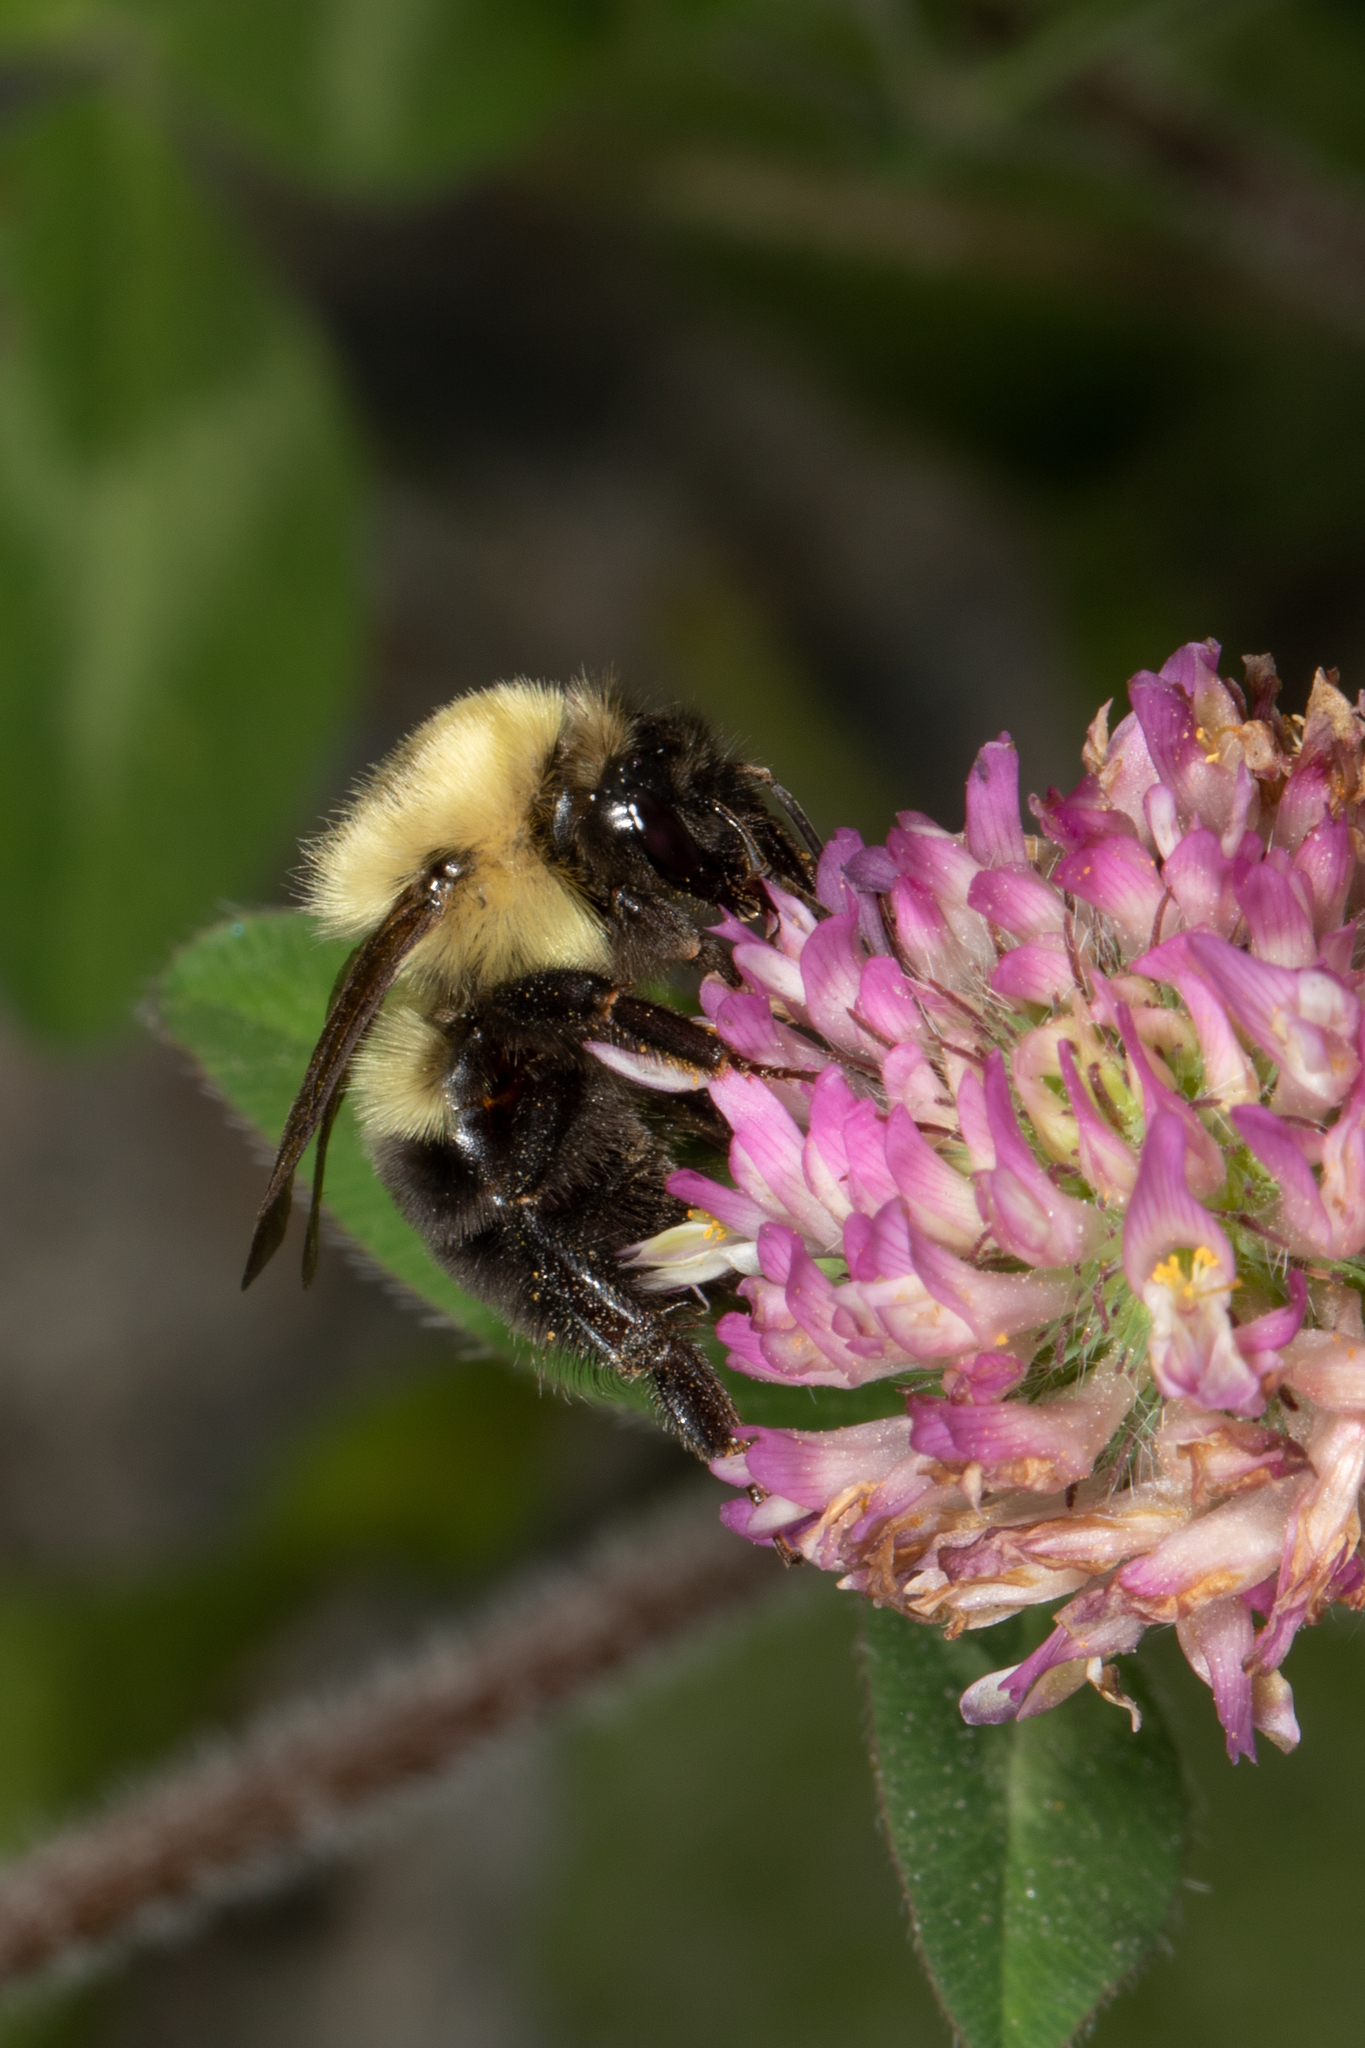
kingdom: Animalia
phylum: Arthropoda
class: Insecta
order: Hymenoptera
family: Apidae
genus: Bombus
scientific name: Bombus bimaculatus
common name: Two-spotted bumble bee
